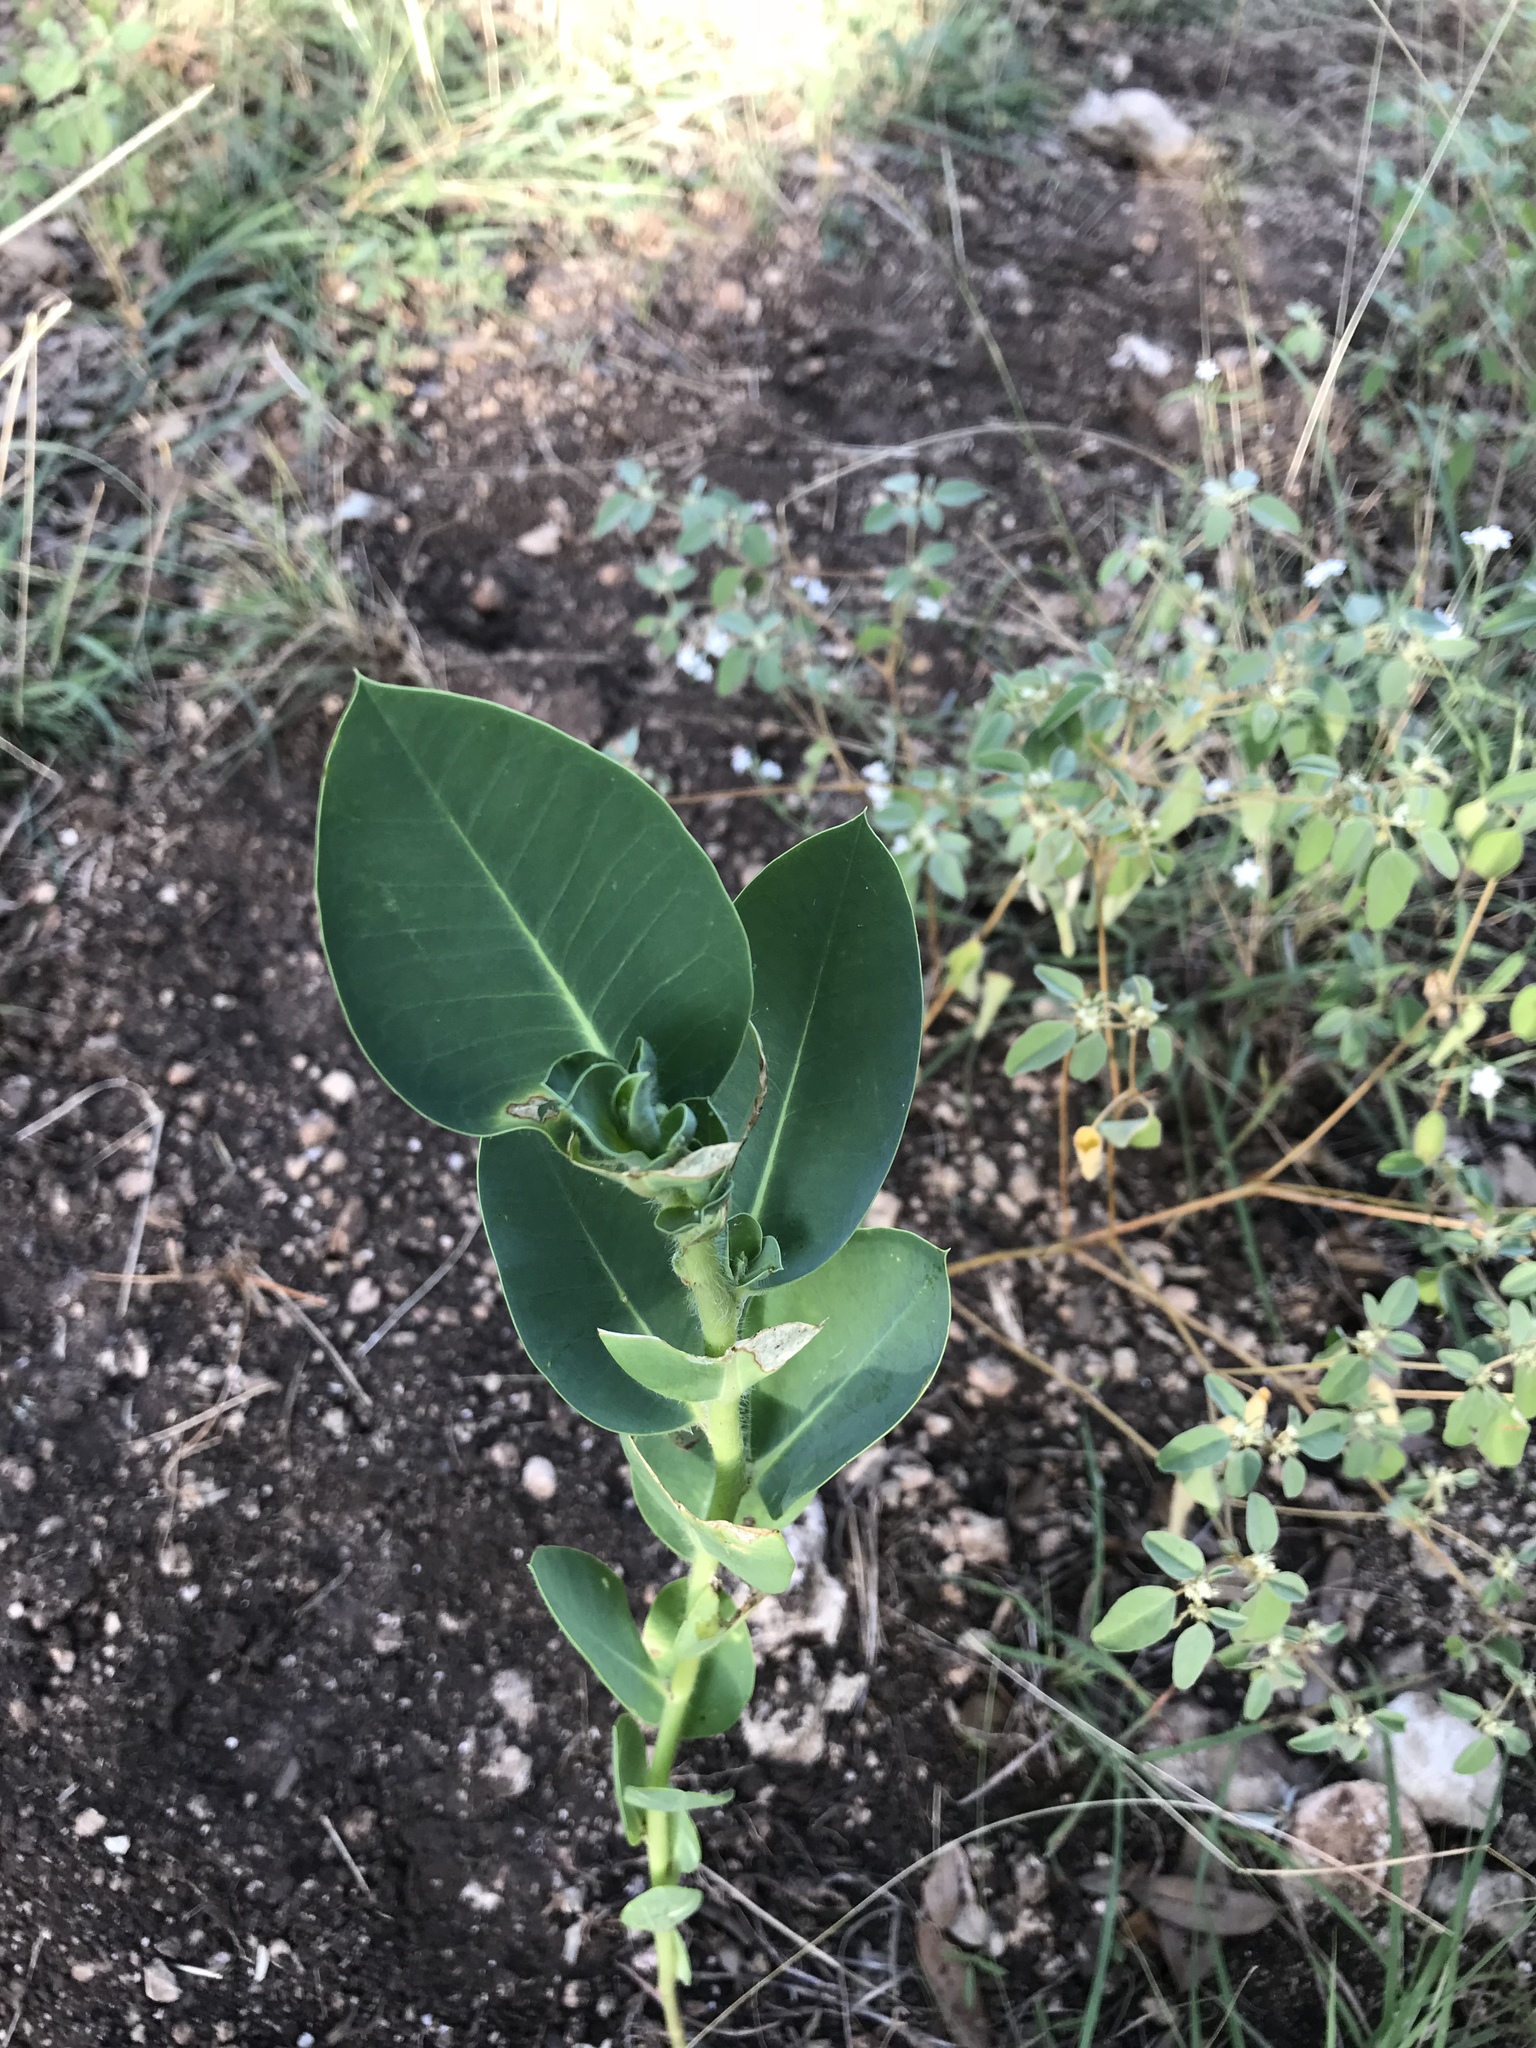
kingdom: Plantae
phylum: Tracheophyta
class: Magnoliopsida
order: Malpighiales
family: Euphorbiaceae
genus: Euphorbia
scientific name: Euphorbia marginata
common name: Ghostweed
